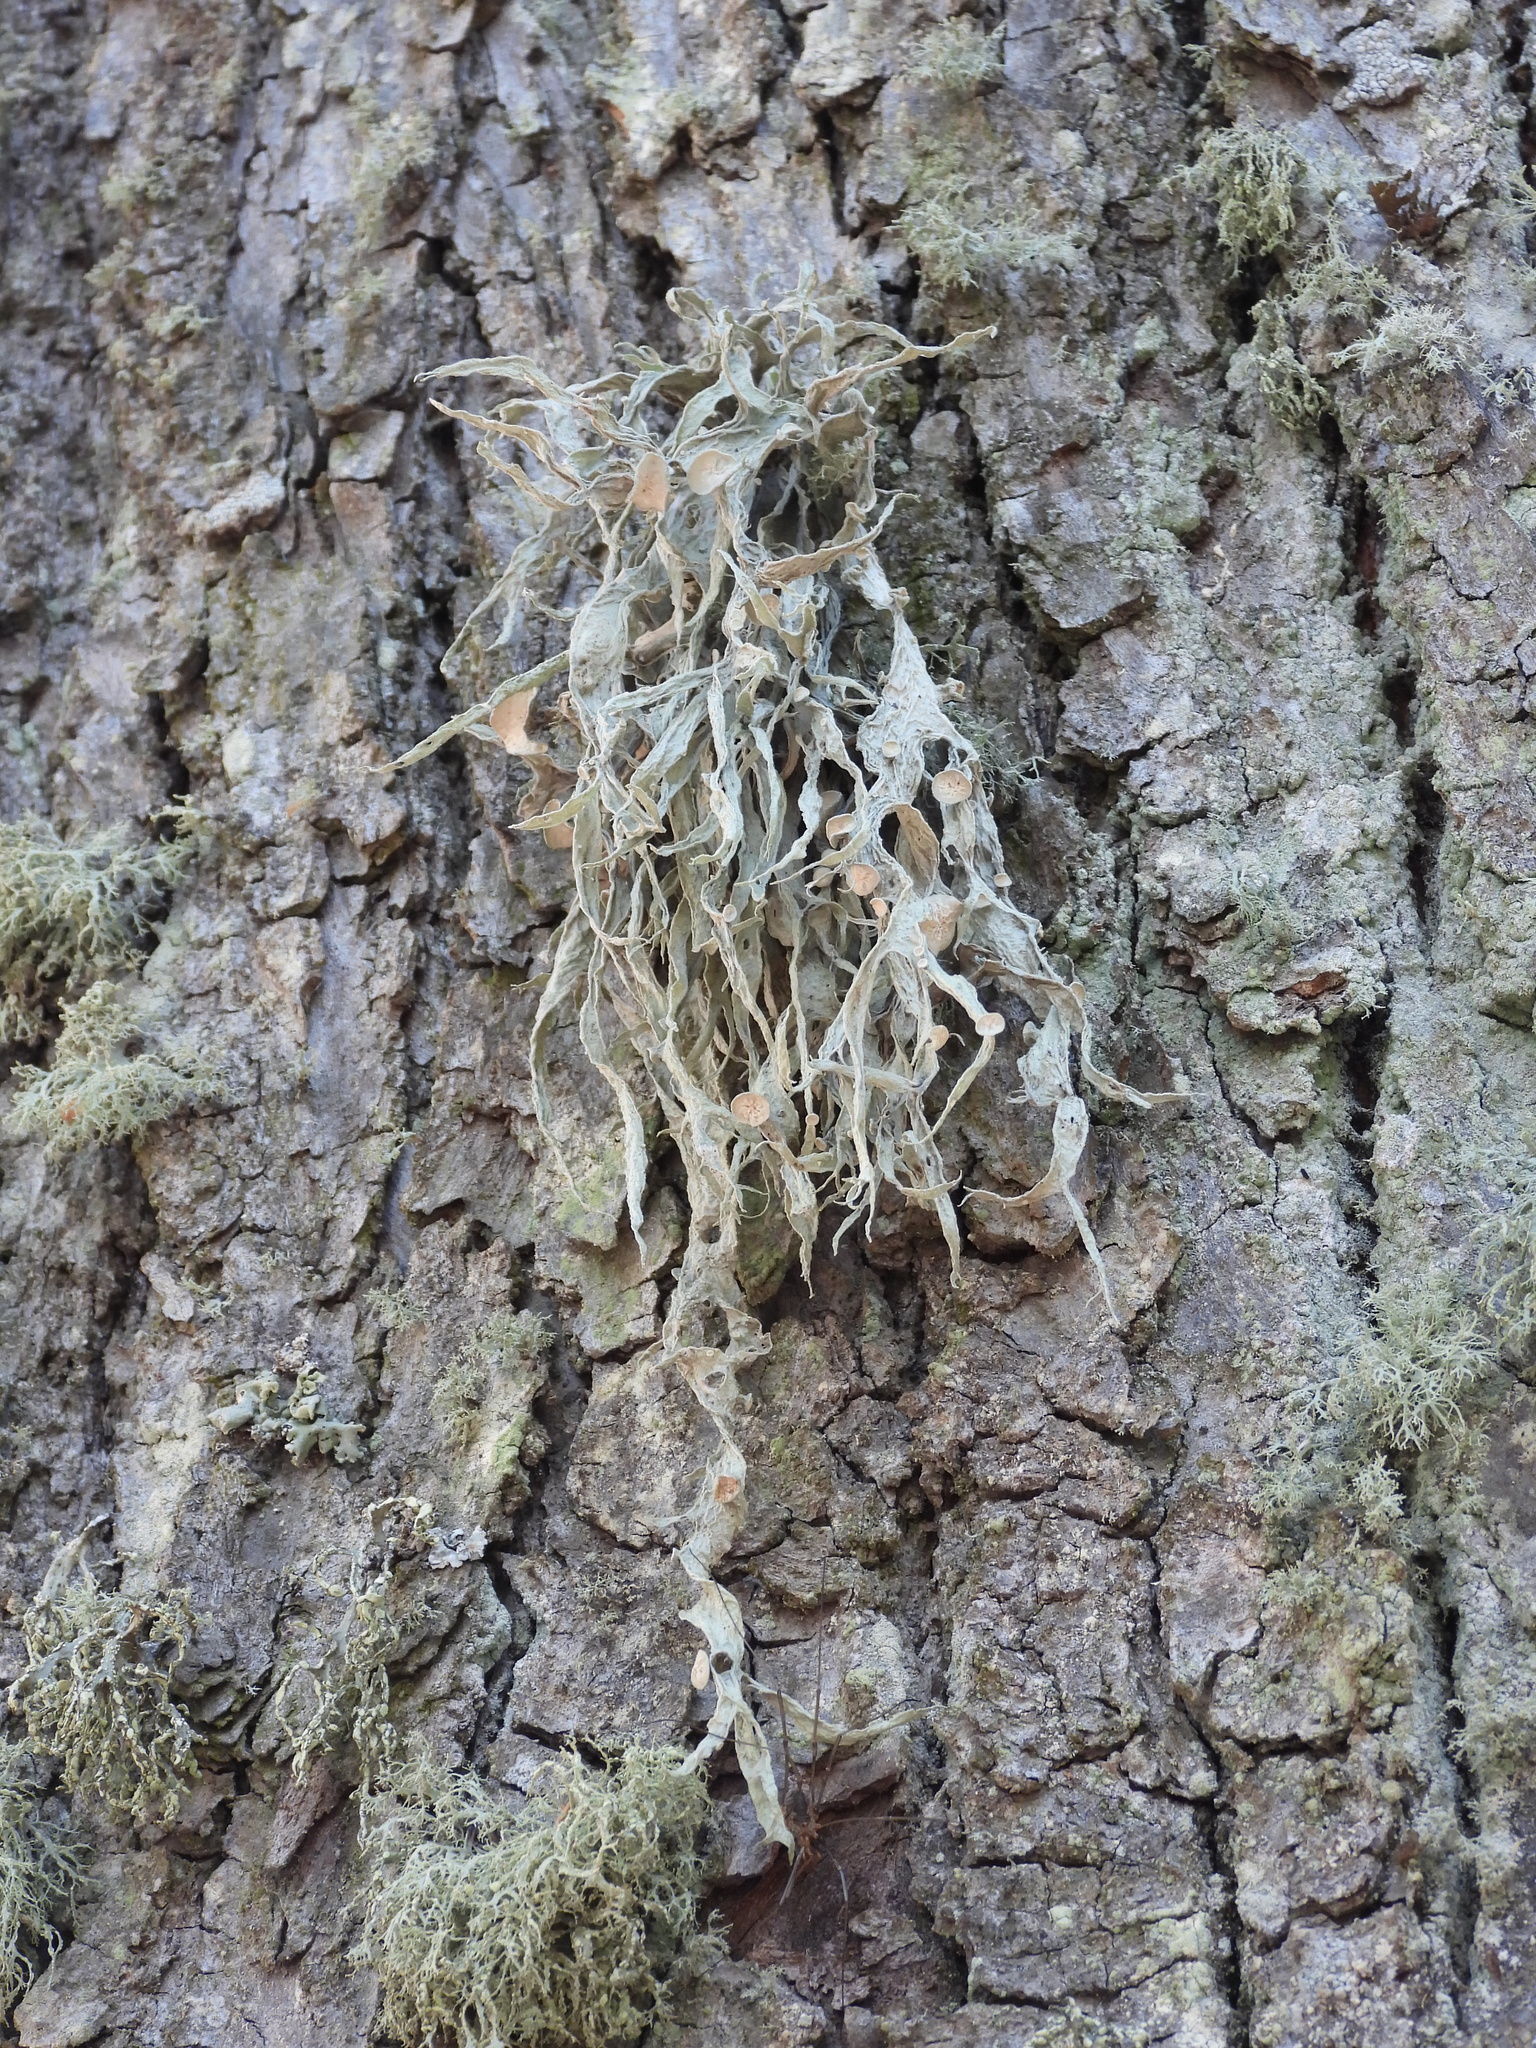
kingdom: Fungi
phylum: Ascomycota
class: Lecanoromycetes
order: Lecanorales
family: Ramalinaceae
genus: Ramalina
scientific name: Ramalina fraxinea
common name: Cartilage lichen
